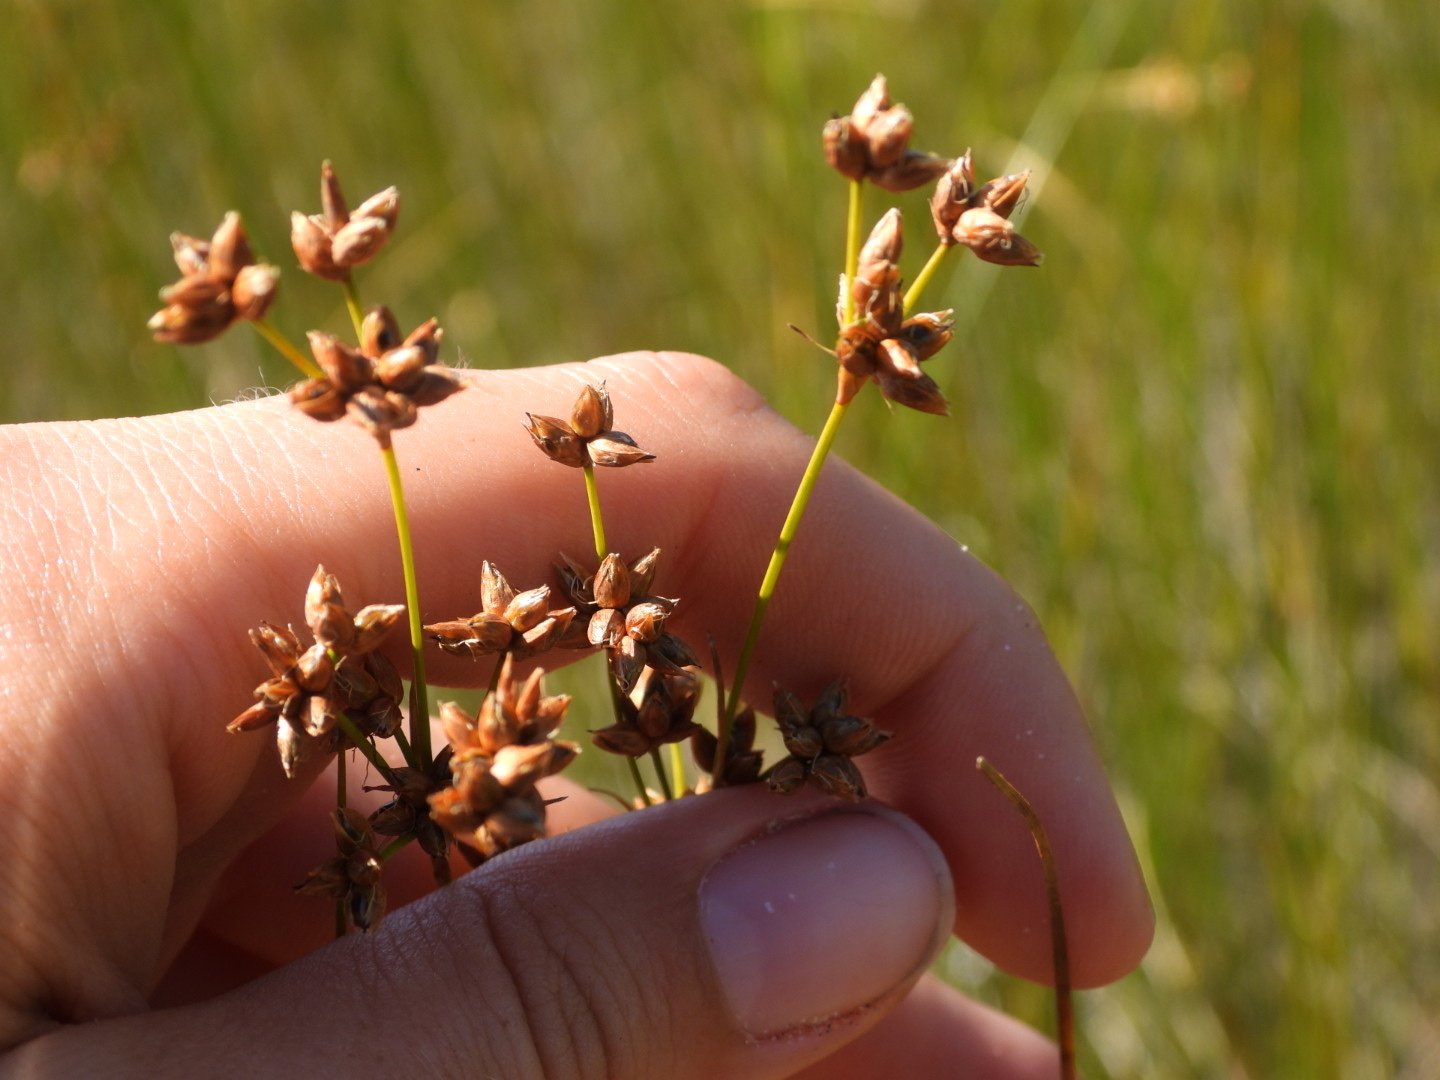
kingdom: Plantae
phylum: Tracheophyta
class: Liliopsida
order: Poales
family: Cyperaceae
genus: Cladium
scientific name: Cladium mariscoides
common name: Smooth sawgrass
